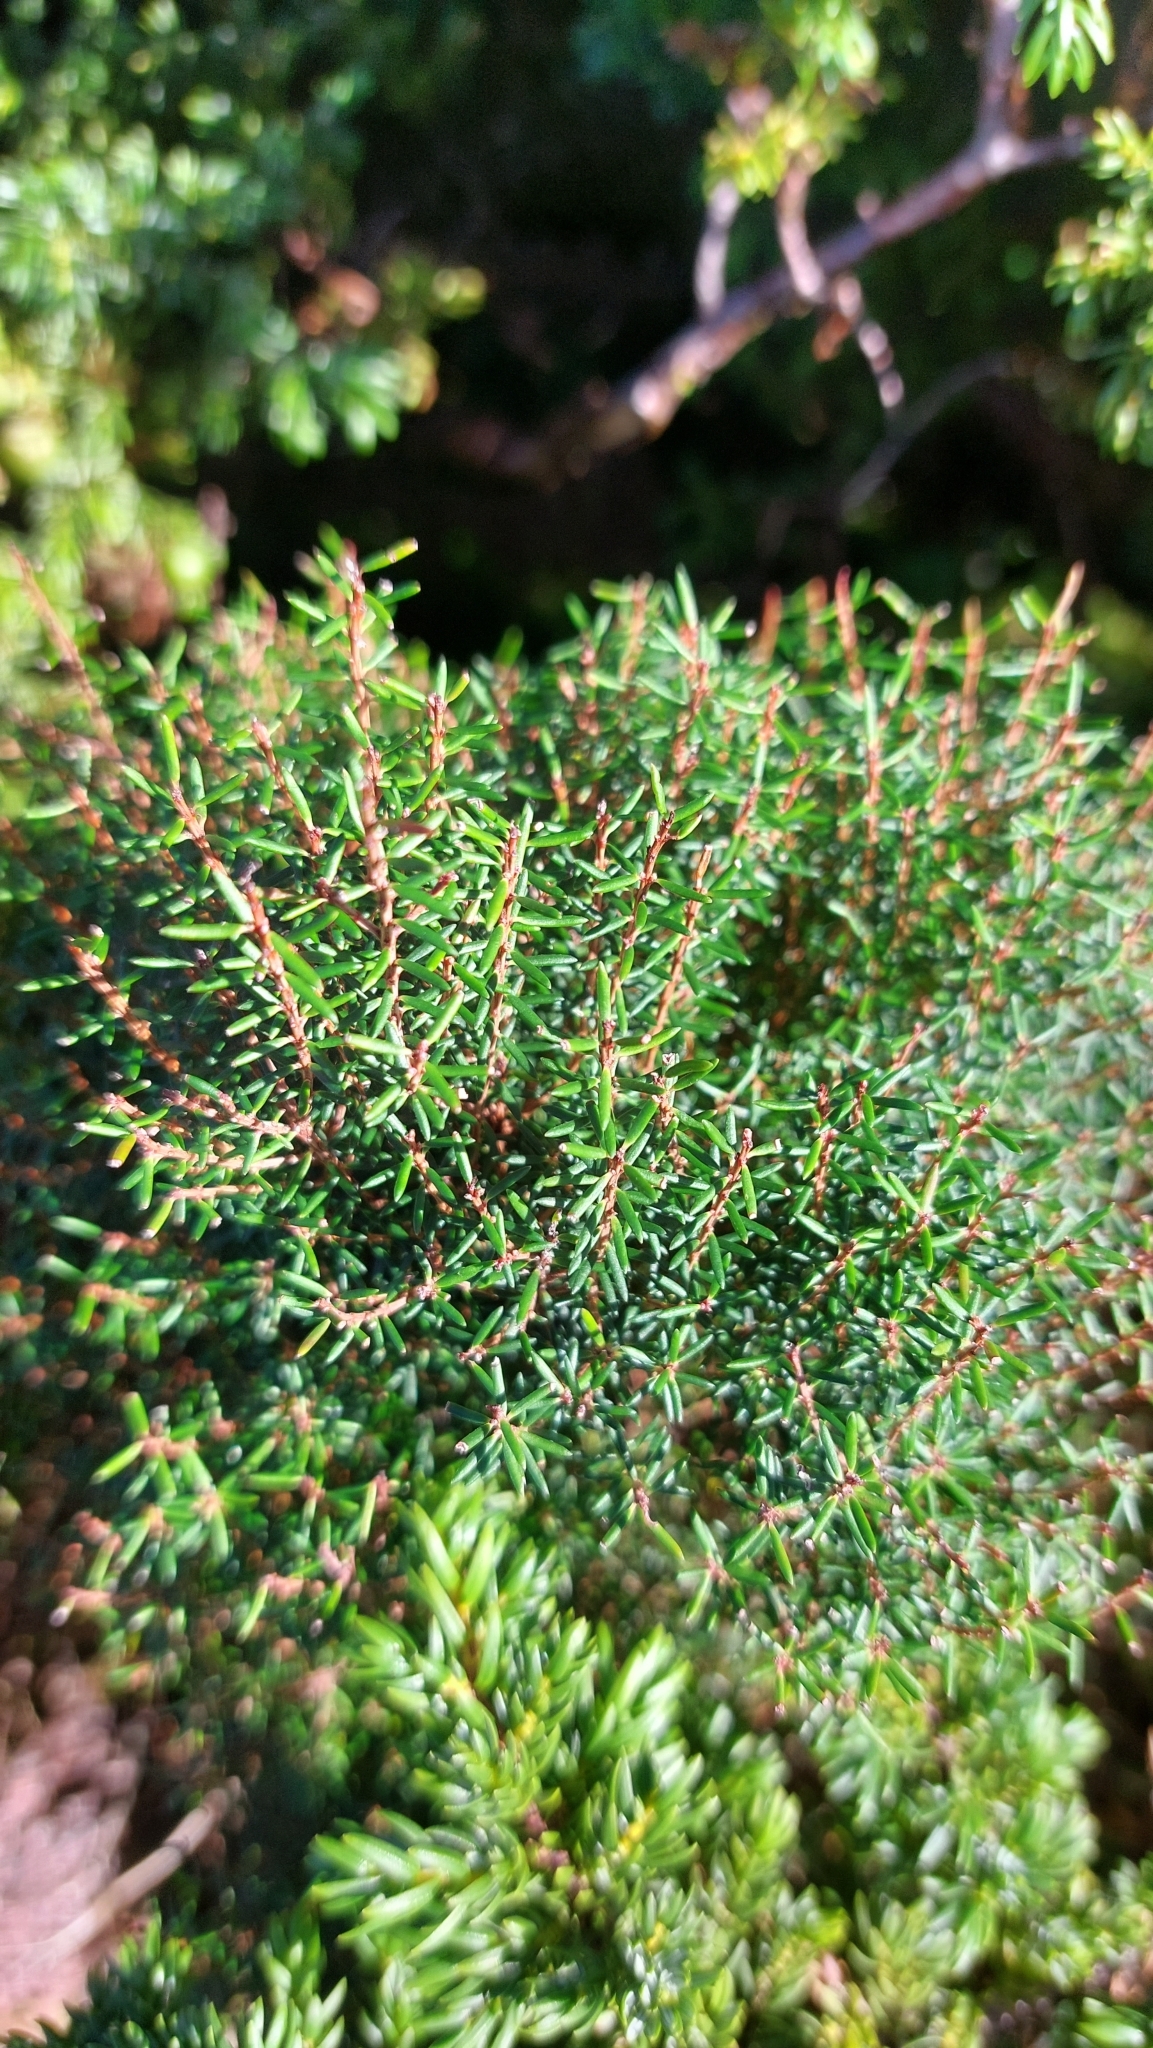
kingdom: Plantae
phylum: Tracheophyta
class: Magnoliopsida
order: Ericales
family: Ericaceae
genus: Erica
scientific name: Erica azorica
